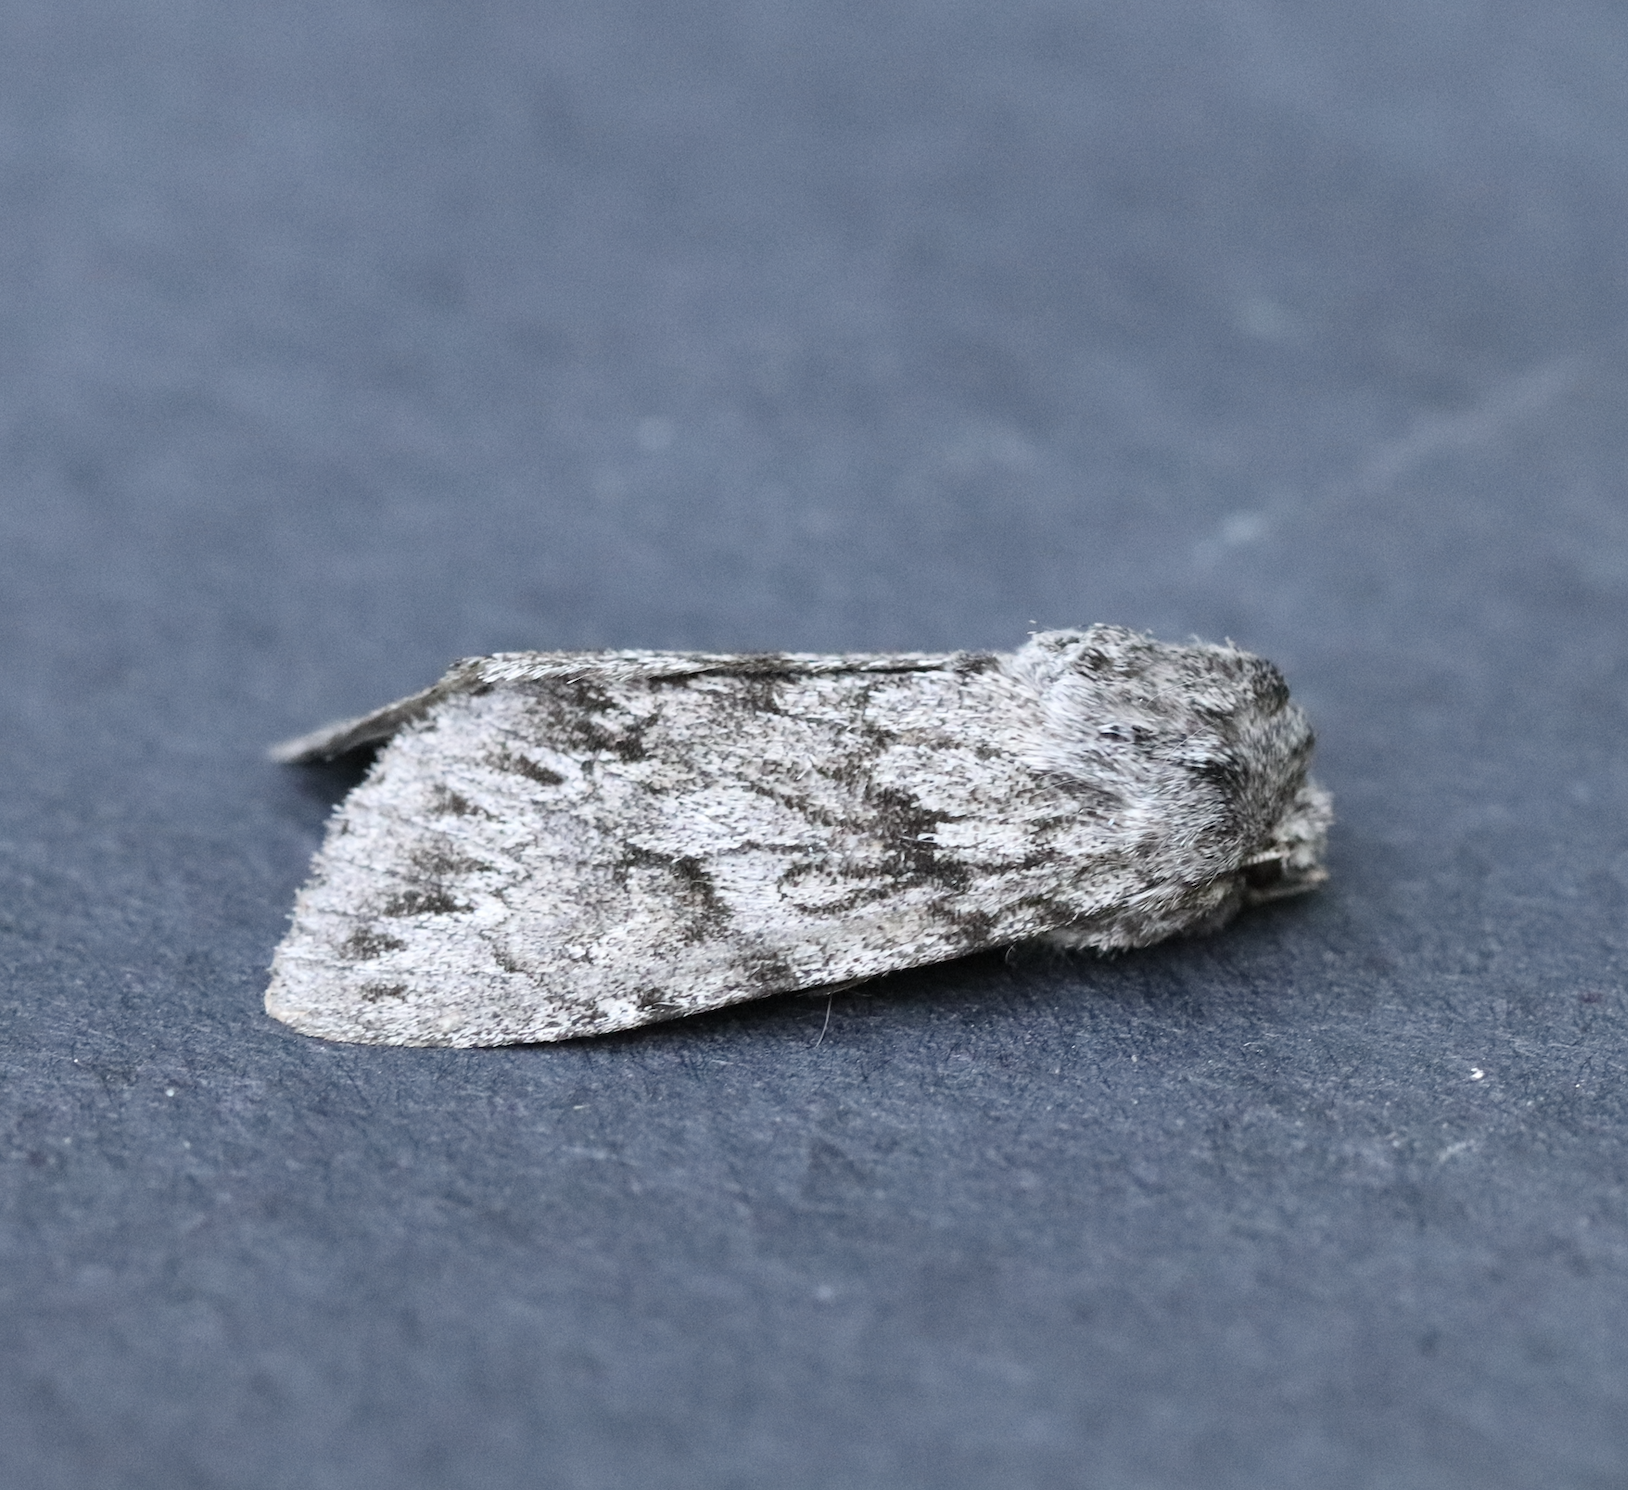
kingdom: Animalia
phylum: Arthropoda
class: Insecta
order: Lepidoptera
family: Noctuidae
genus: Andropolia
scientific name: Andropolia contacta
